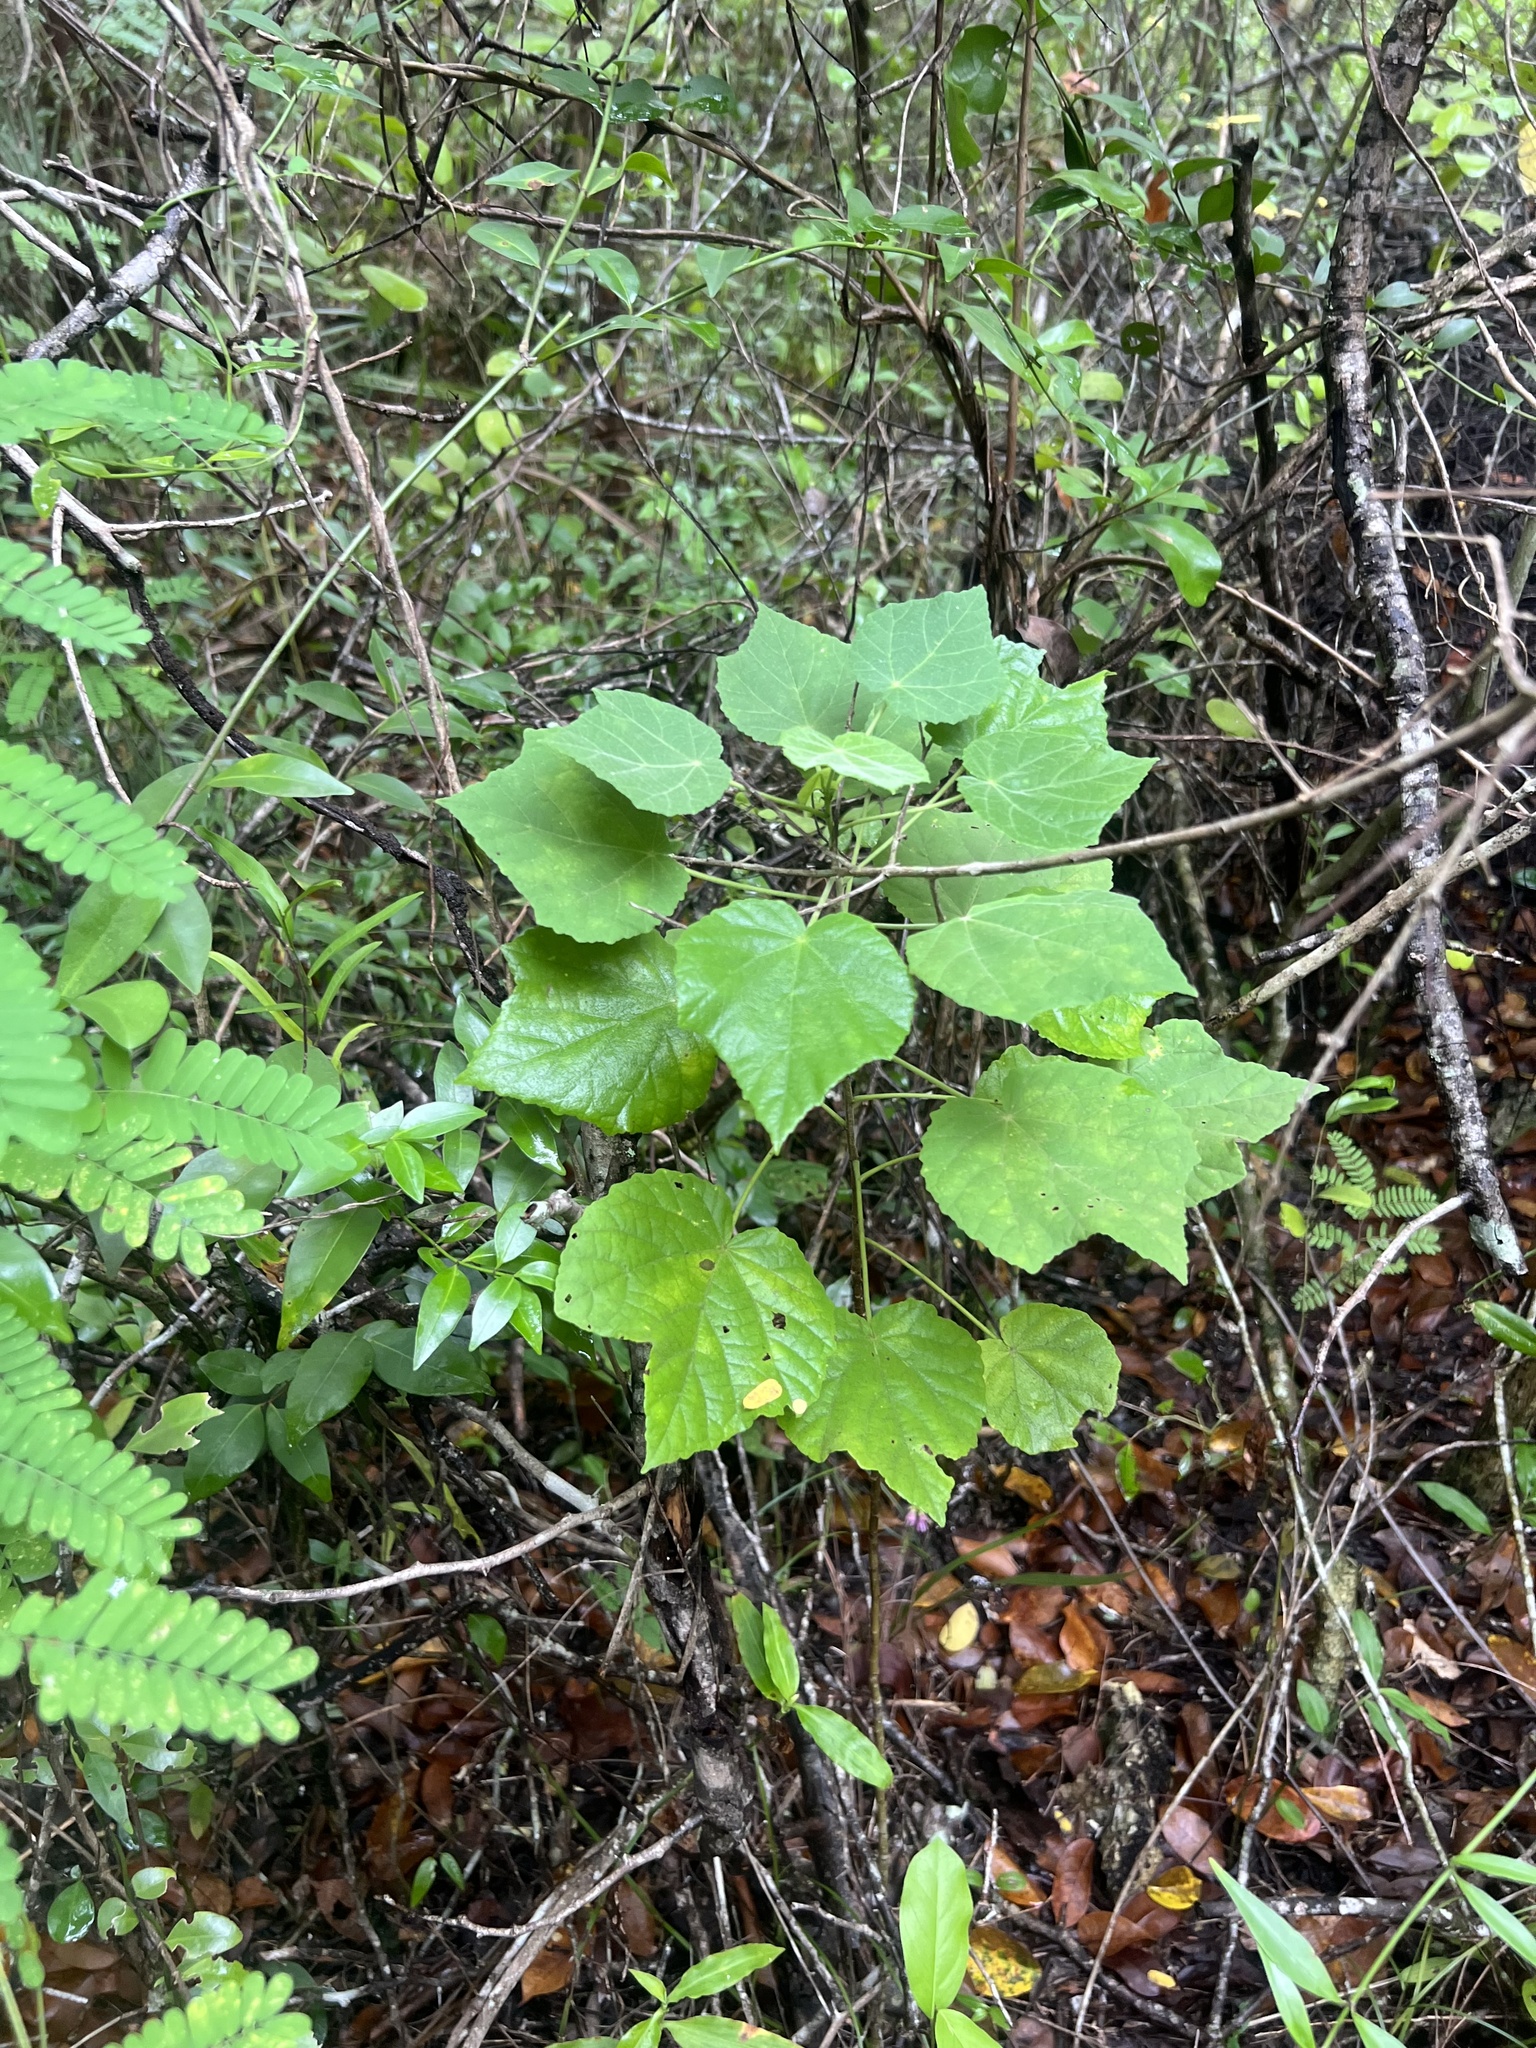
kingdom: Plantae
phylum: Tracheophyta
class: Magnoliopsida
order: Malvales
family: Malvaceae
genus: Malvaviscus
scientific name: Malvaviscus arboreus
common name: Wax mallow
